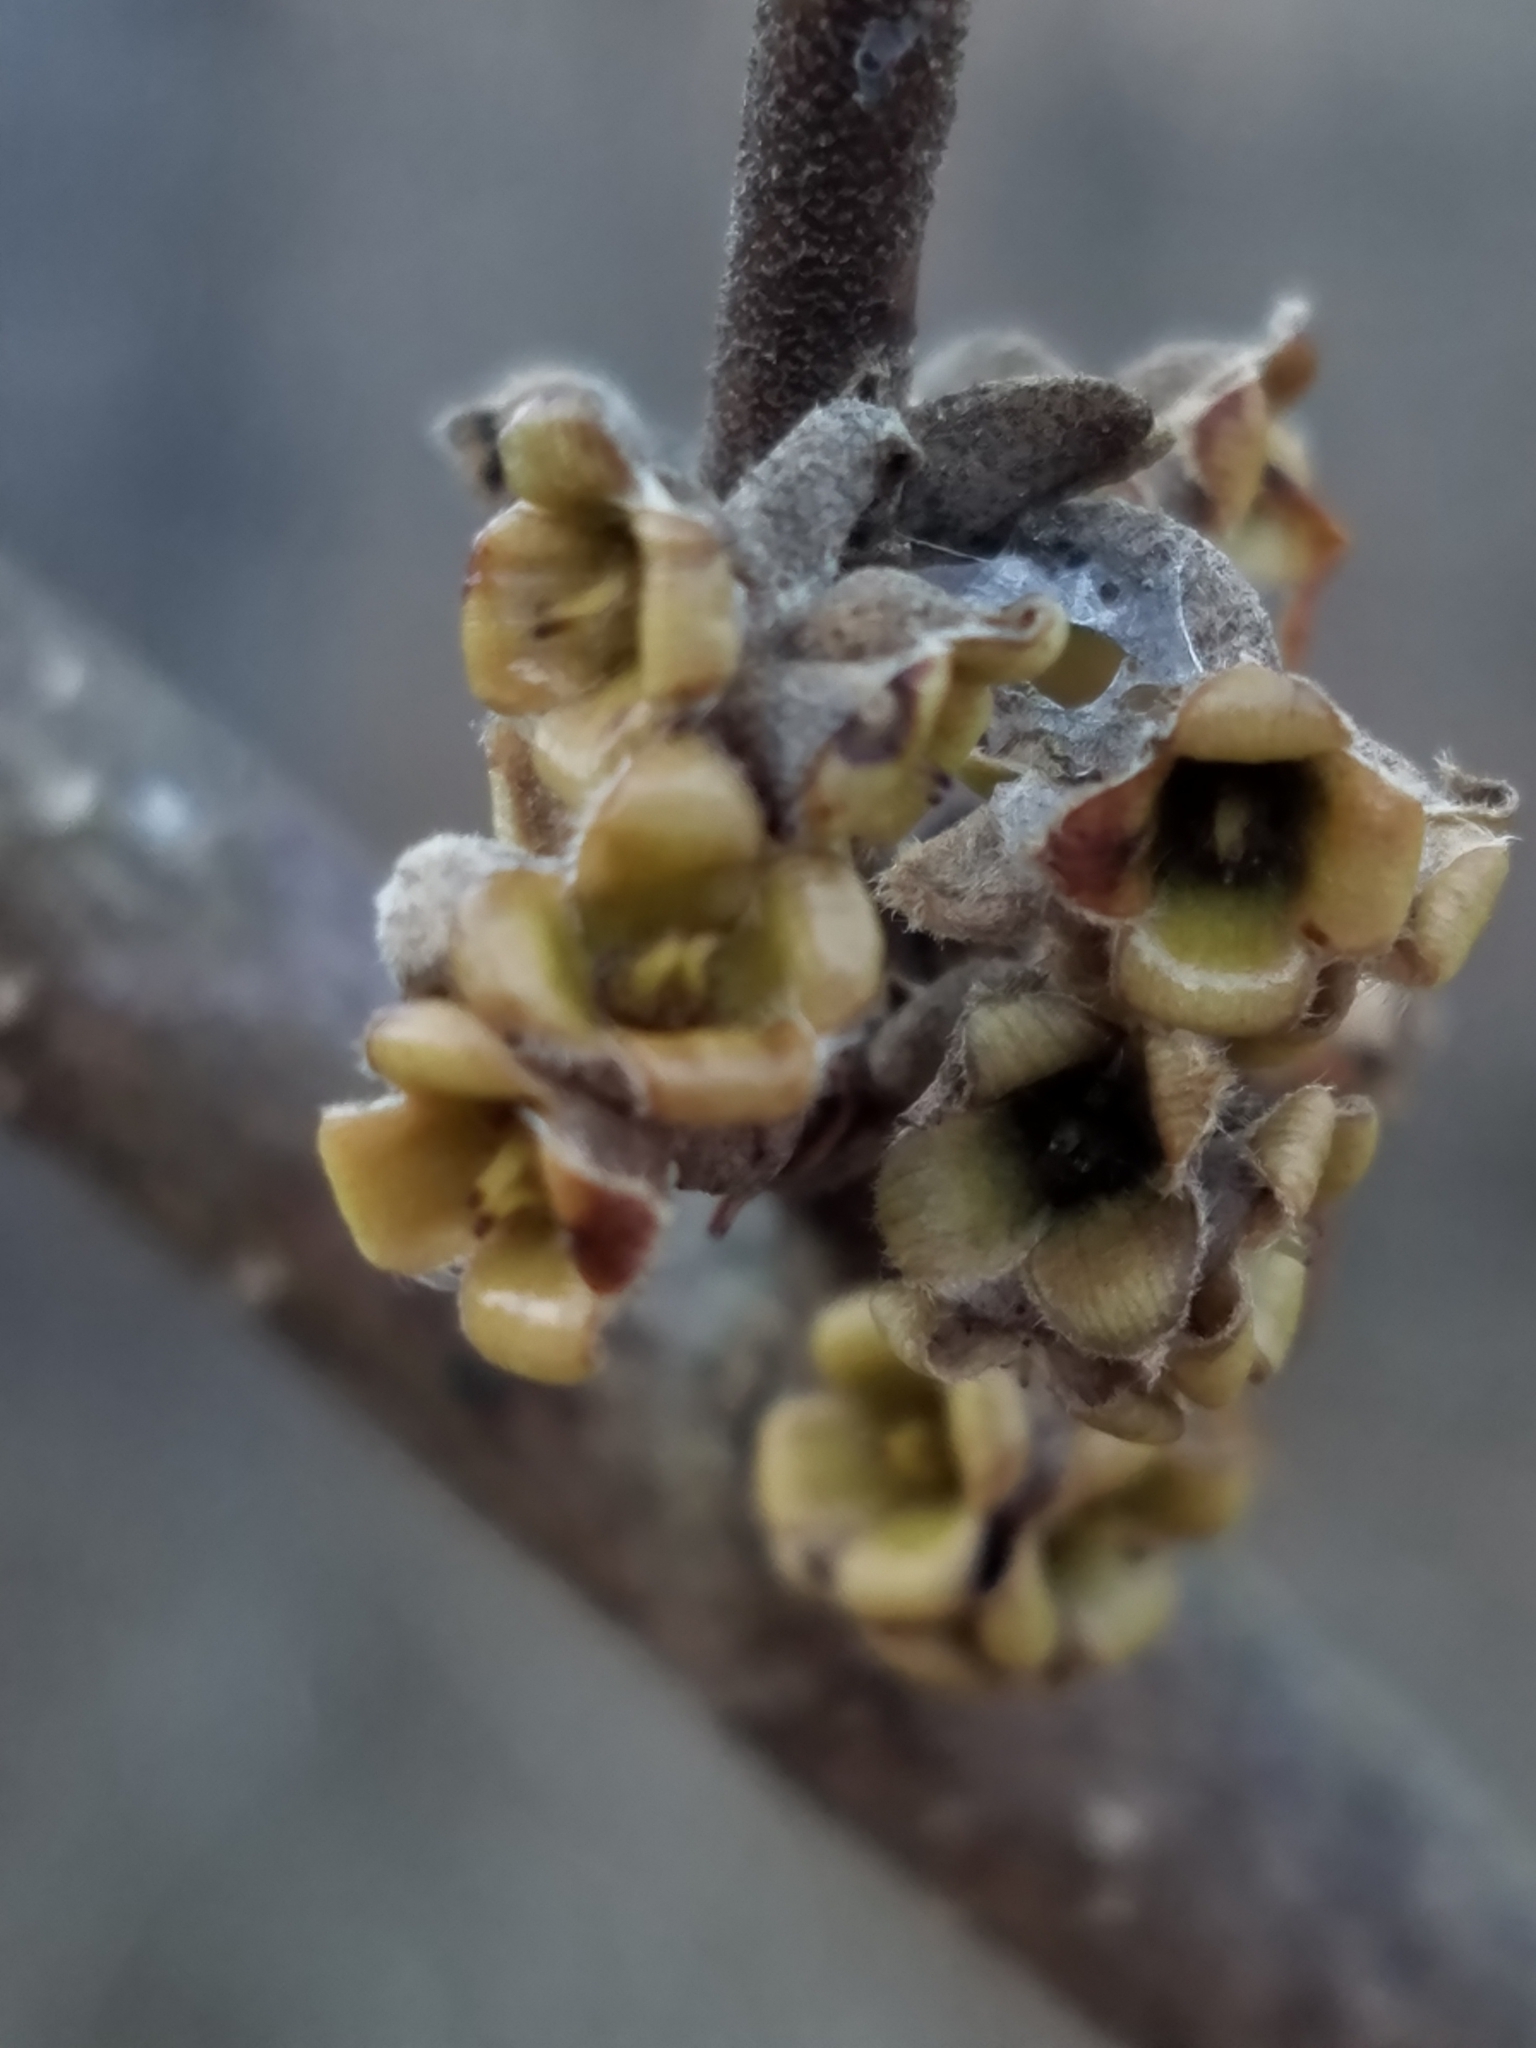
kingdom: Plantae
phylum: Tracheophyta
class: Magnoliopsida
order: Saxifragales
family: Hamamelidaceae
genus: Hamamelis
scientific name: Hamamelis virginiana
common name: Witch-hazel
